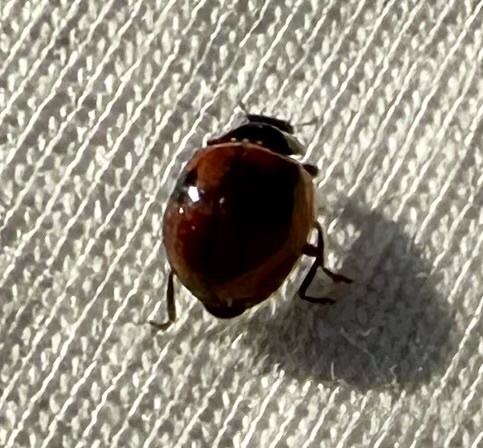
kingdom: Animalia
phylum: Arthropoda
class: Insecta
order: Coleoptera
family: Coccinellidae
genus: Adalia
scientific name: Adalia bipunctata
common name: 2-spot ladybird
